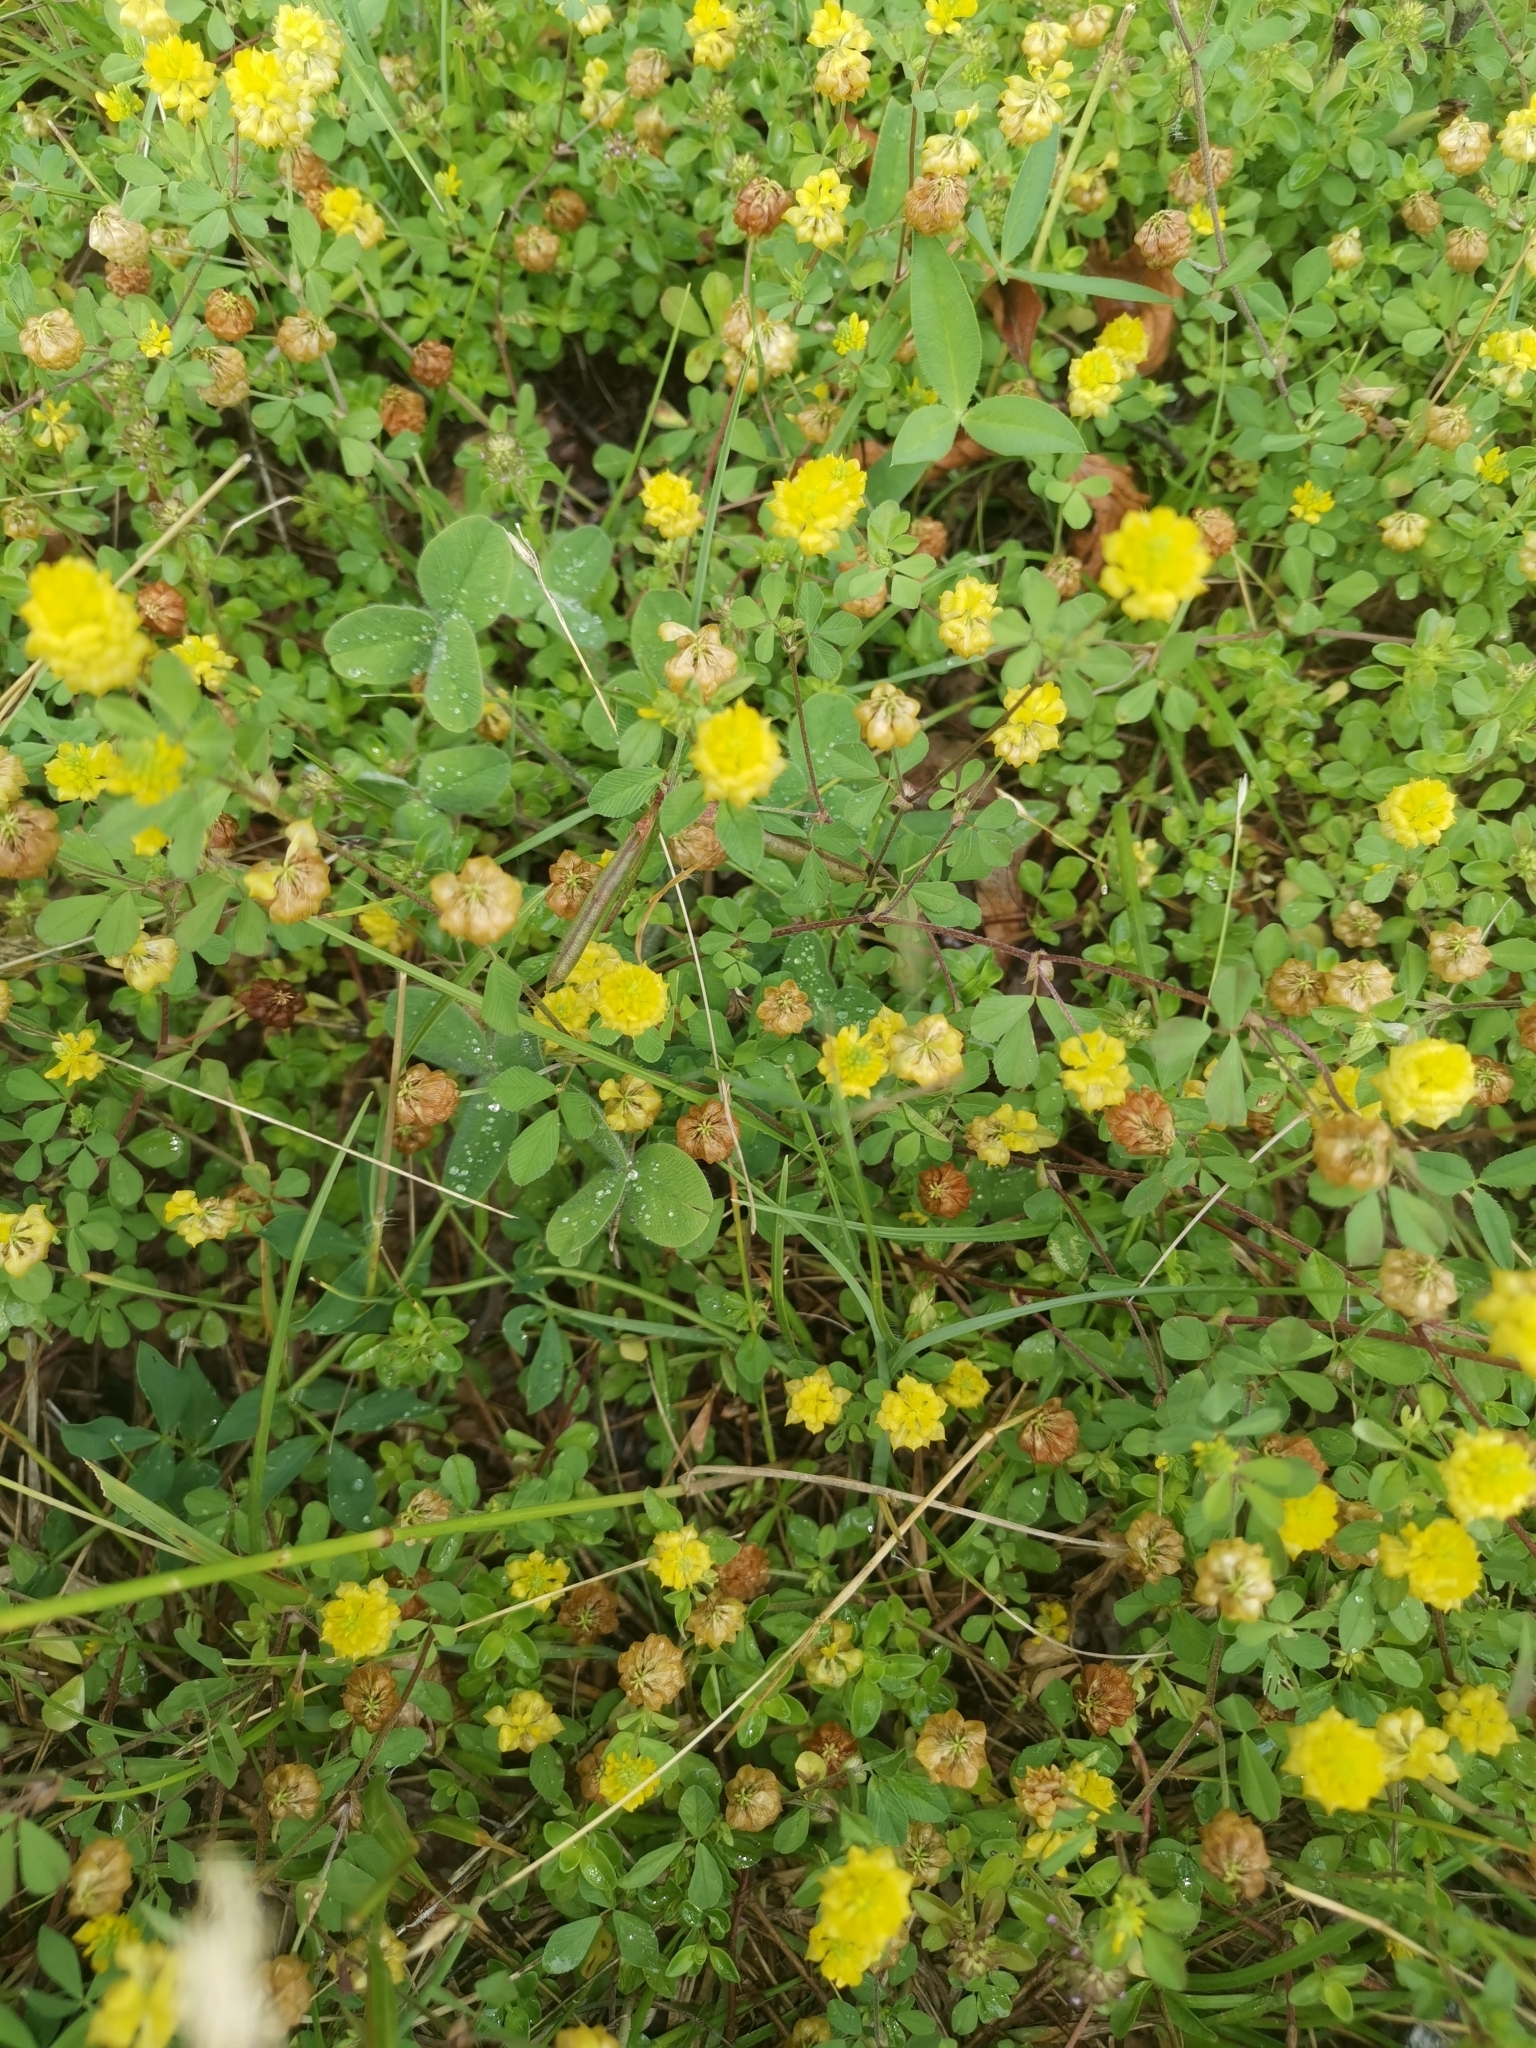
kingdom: Plantae
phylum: Tracheophyta
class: Magnoliopsida
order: Fabales
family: Fabaceae
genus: Trifolium
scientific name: Trifolium campestre
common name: Field clover
